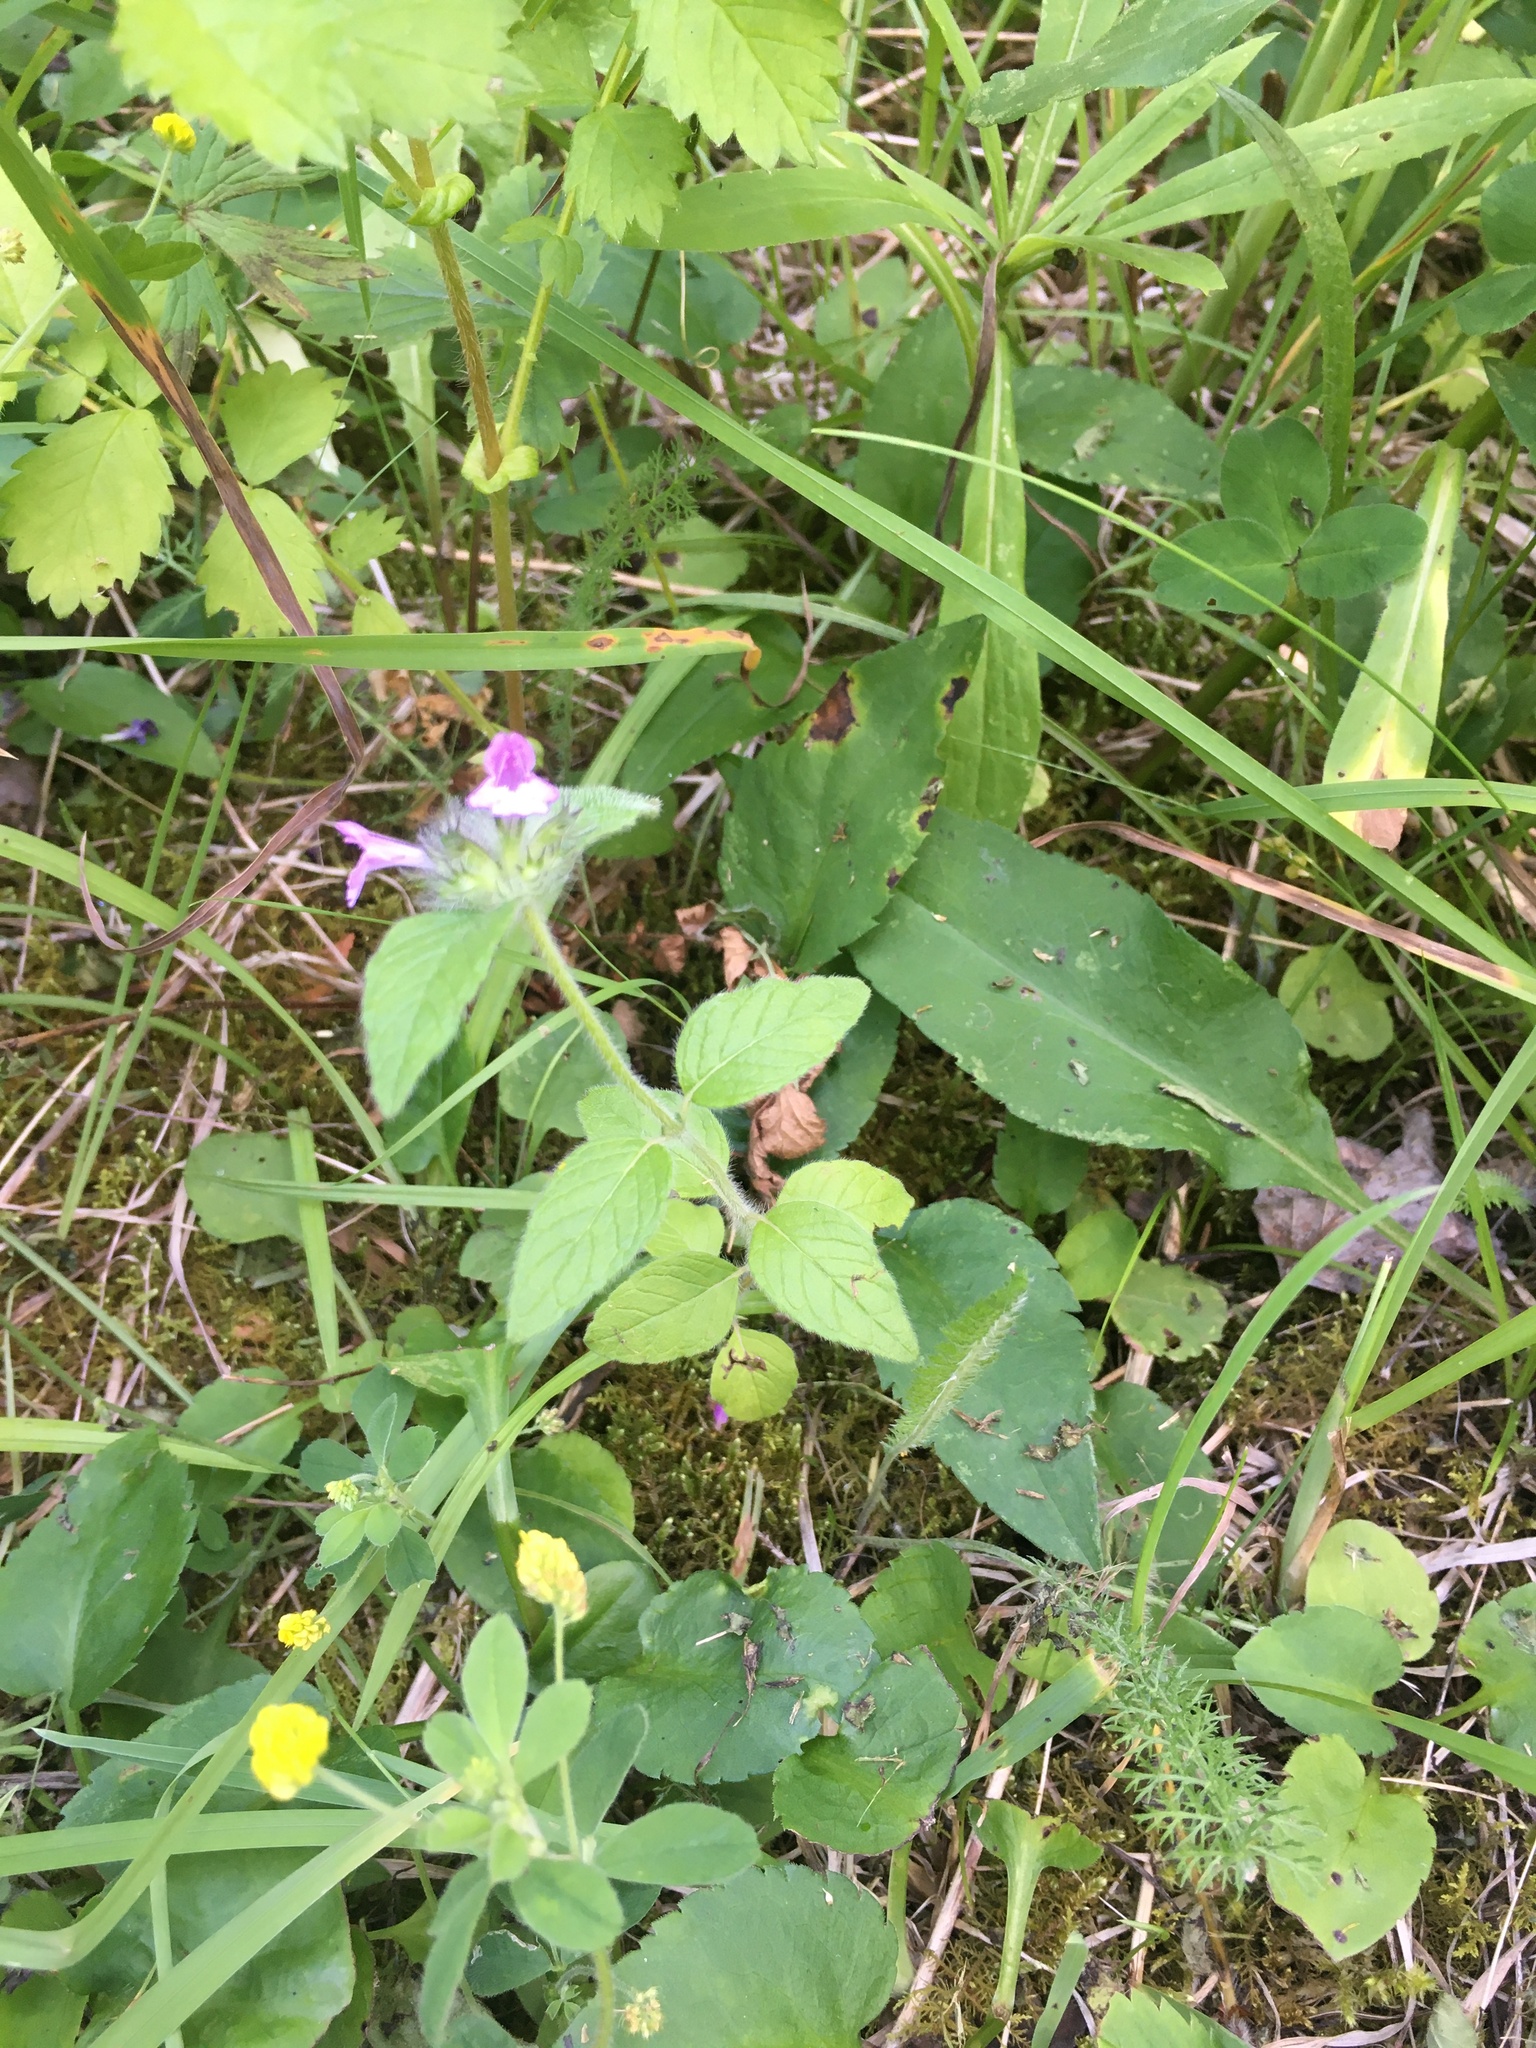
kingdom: Plantae
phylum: Tracheophyta
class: Magnoliopsida
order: Lamiales
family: Lamiaceae
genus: Clinopodium
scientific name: Clinopodium vulgare
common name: Wild basil
